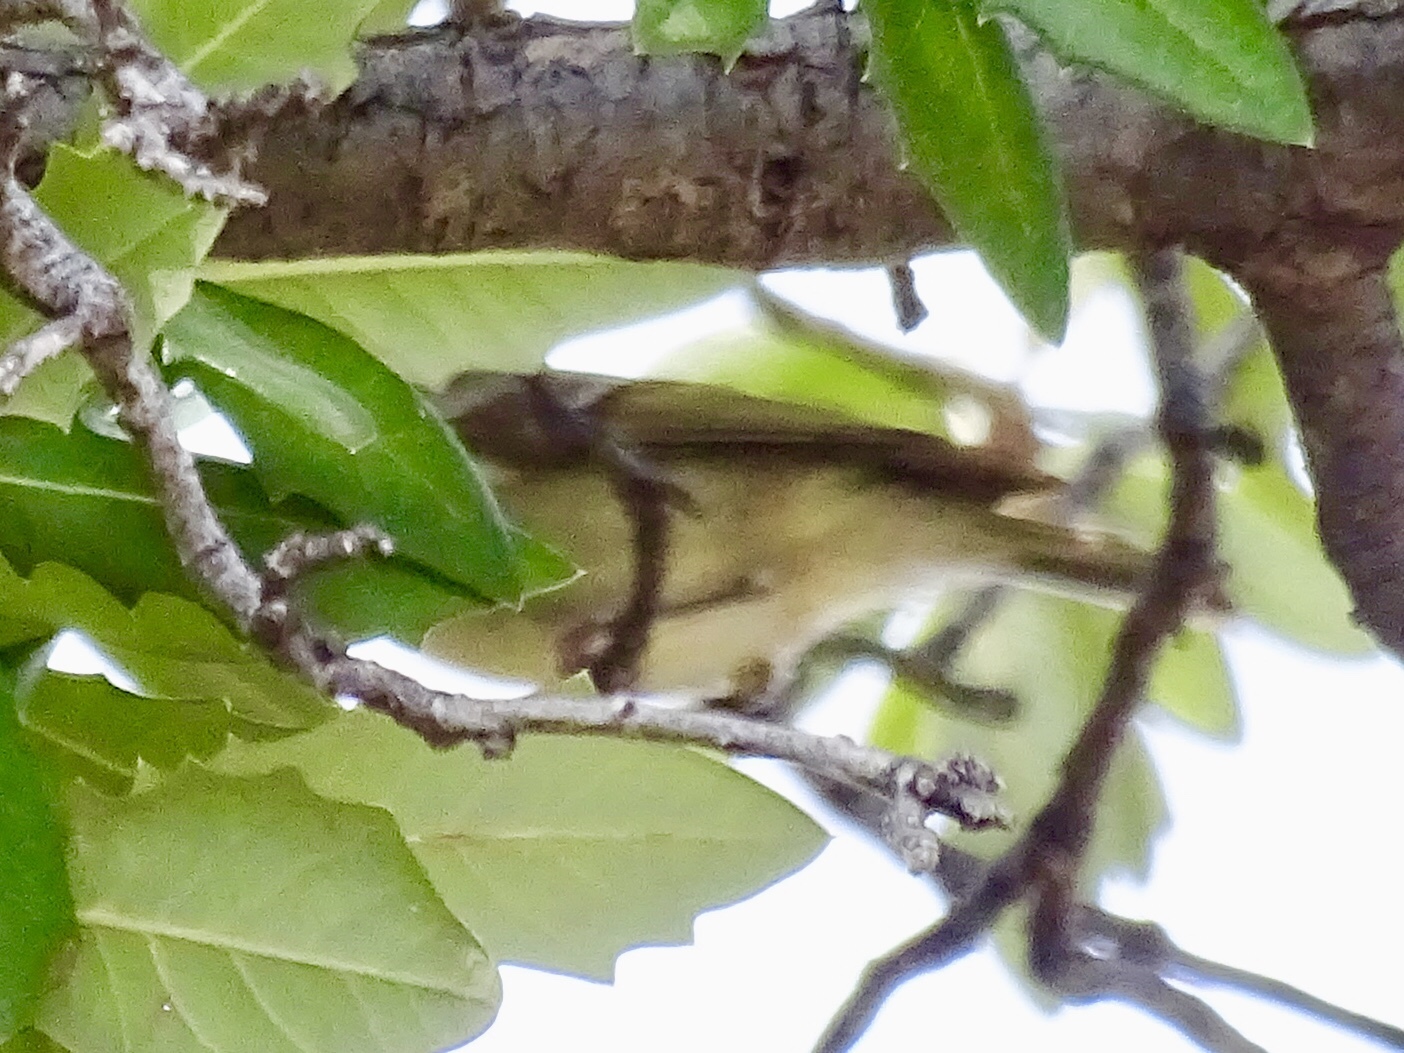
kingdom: Animalia
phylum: Chordata
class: Aves
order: Passeriformes
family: Regulidae
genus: Regulus
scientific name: Regulus calendula
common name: Ruby-crowned kinglet
